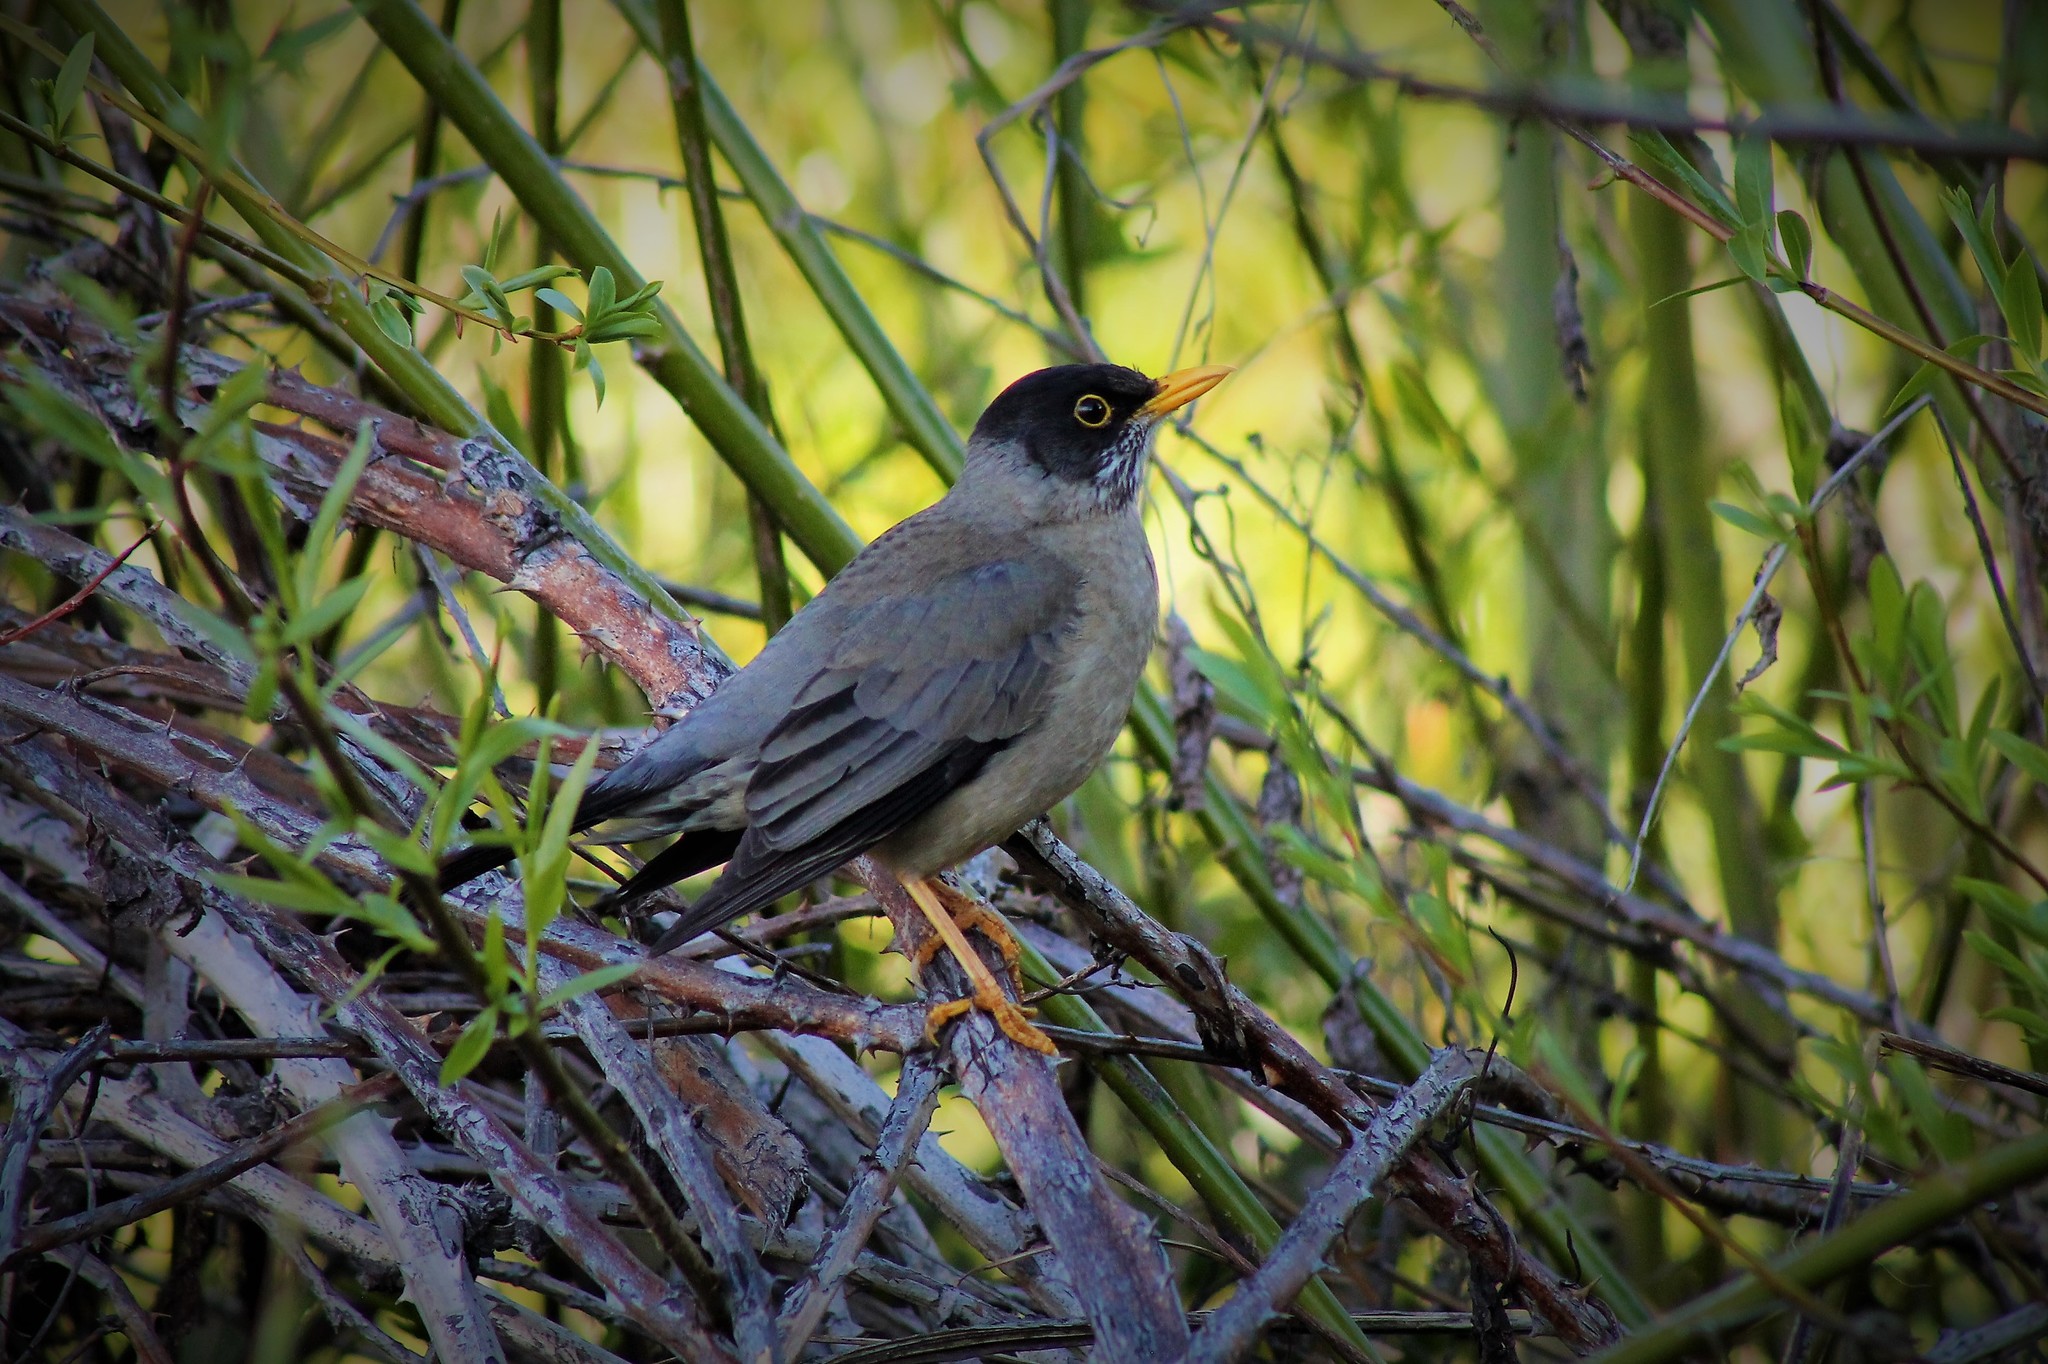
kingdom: Animalia
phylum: Chordata
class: Aves
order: Passeriformes
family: Turdidae
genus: Turdus
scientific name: Turdus falcklandii
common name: Austral thrush
